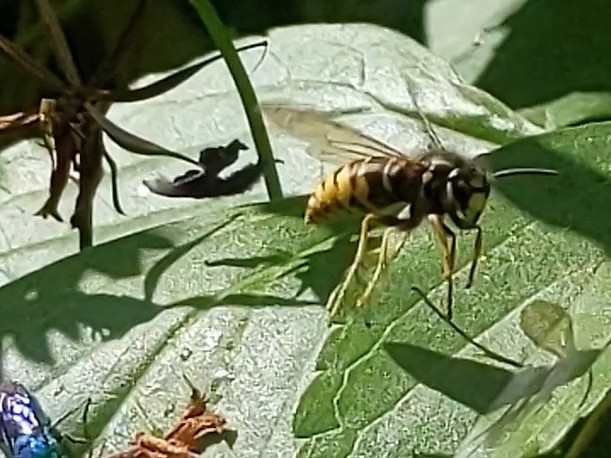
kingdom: Animalia
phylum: Arthropoda
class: Insecta
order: Hymenoptera
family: Vespidae
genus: Vespula
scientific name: Vespula vidua
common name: Widow yellowjacket
